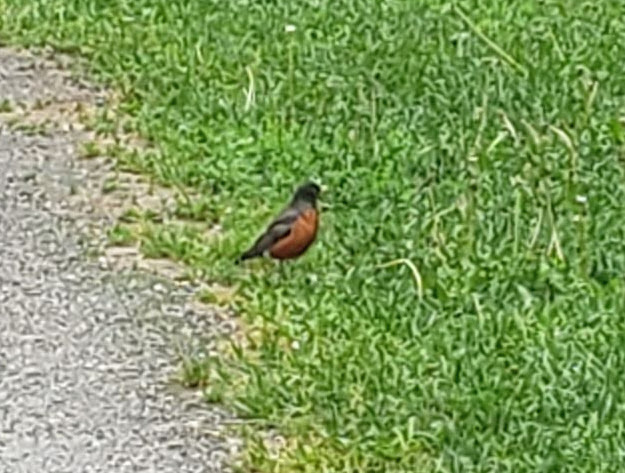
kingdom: Animalia
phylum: Chordata
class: Aves
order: Passeriformes
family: Turdidae
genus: Turdus
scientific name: Turdus migratorius
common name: American robin
